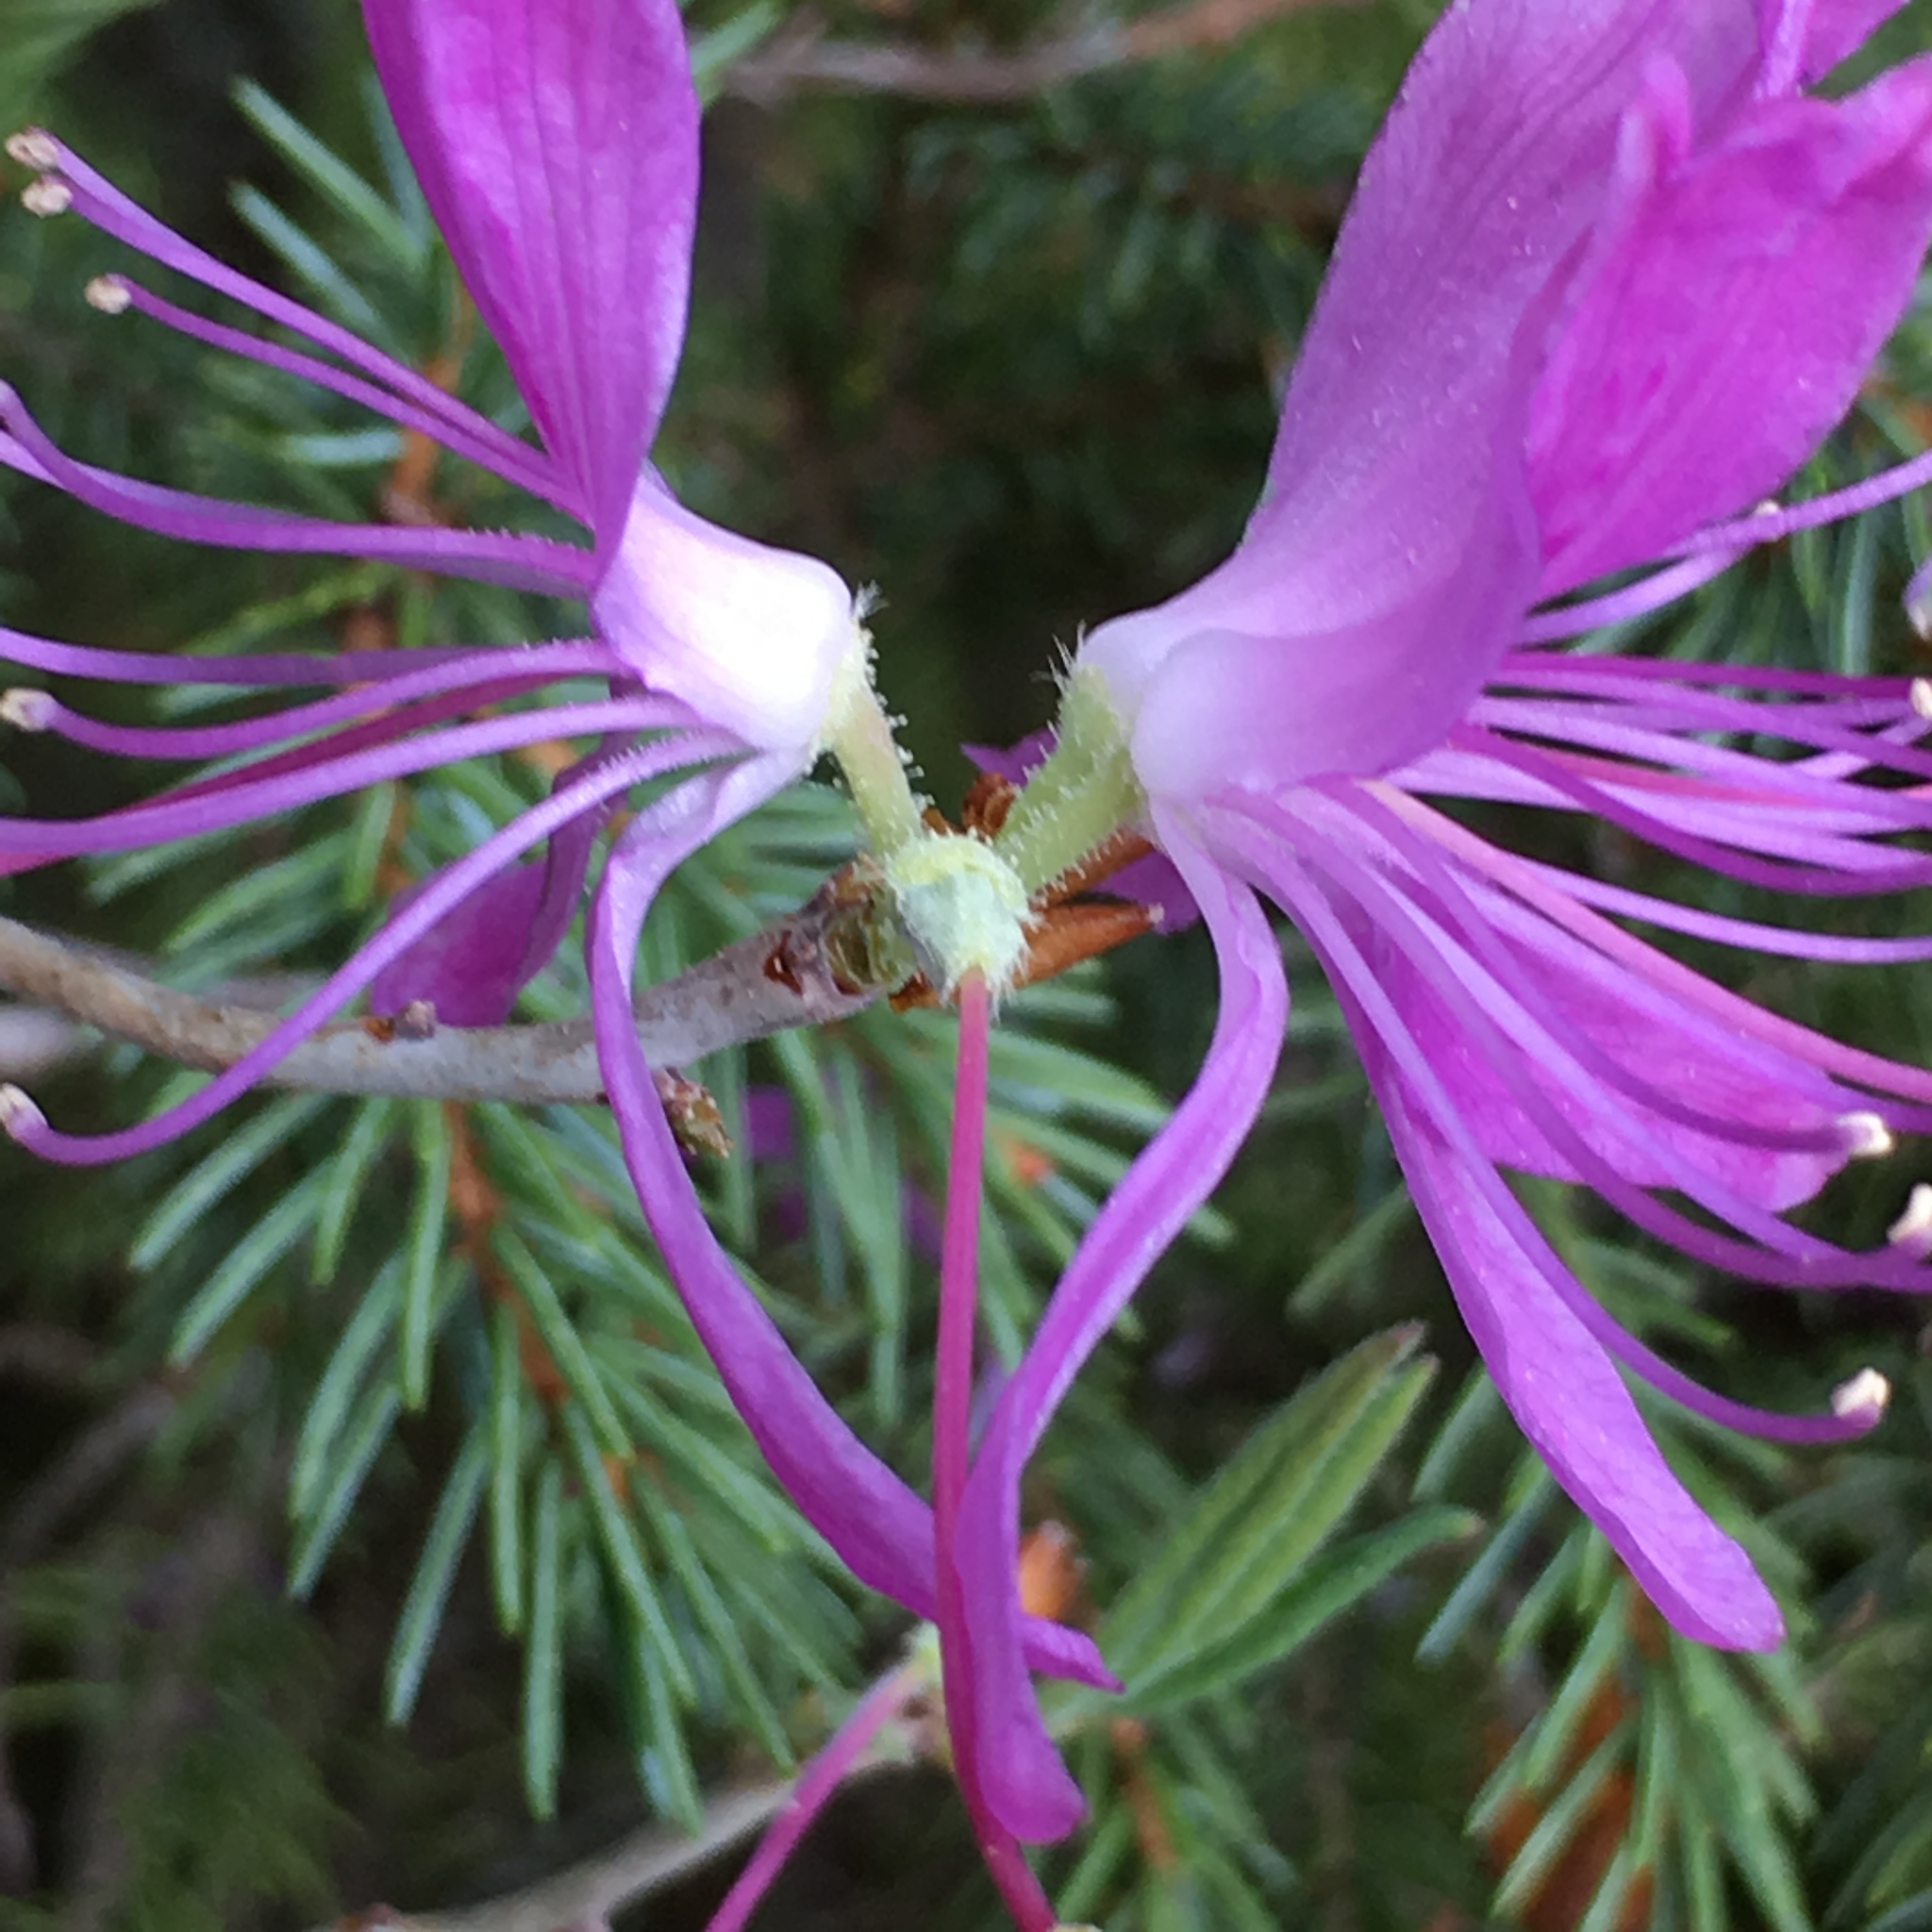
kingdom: Plantae
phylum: Tracheophyta
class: Magnoliopsida
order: Ericales
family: Ericaceae
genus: Rhododendron
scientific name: Rhododendron canadense
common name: Rhodora
